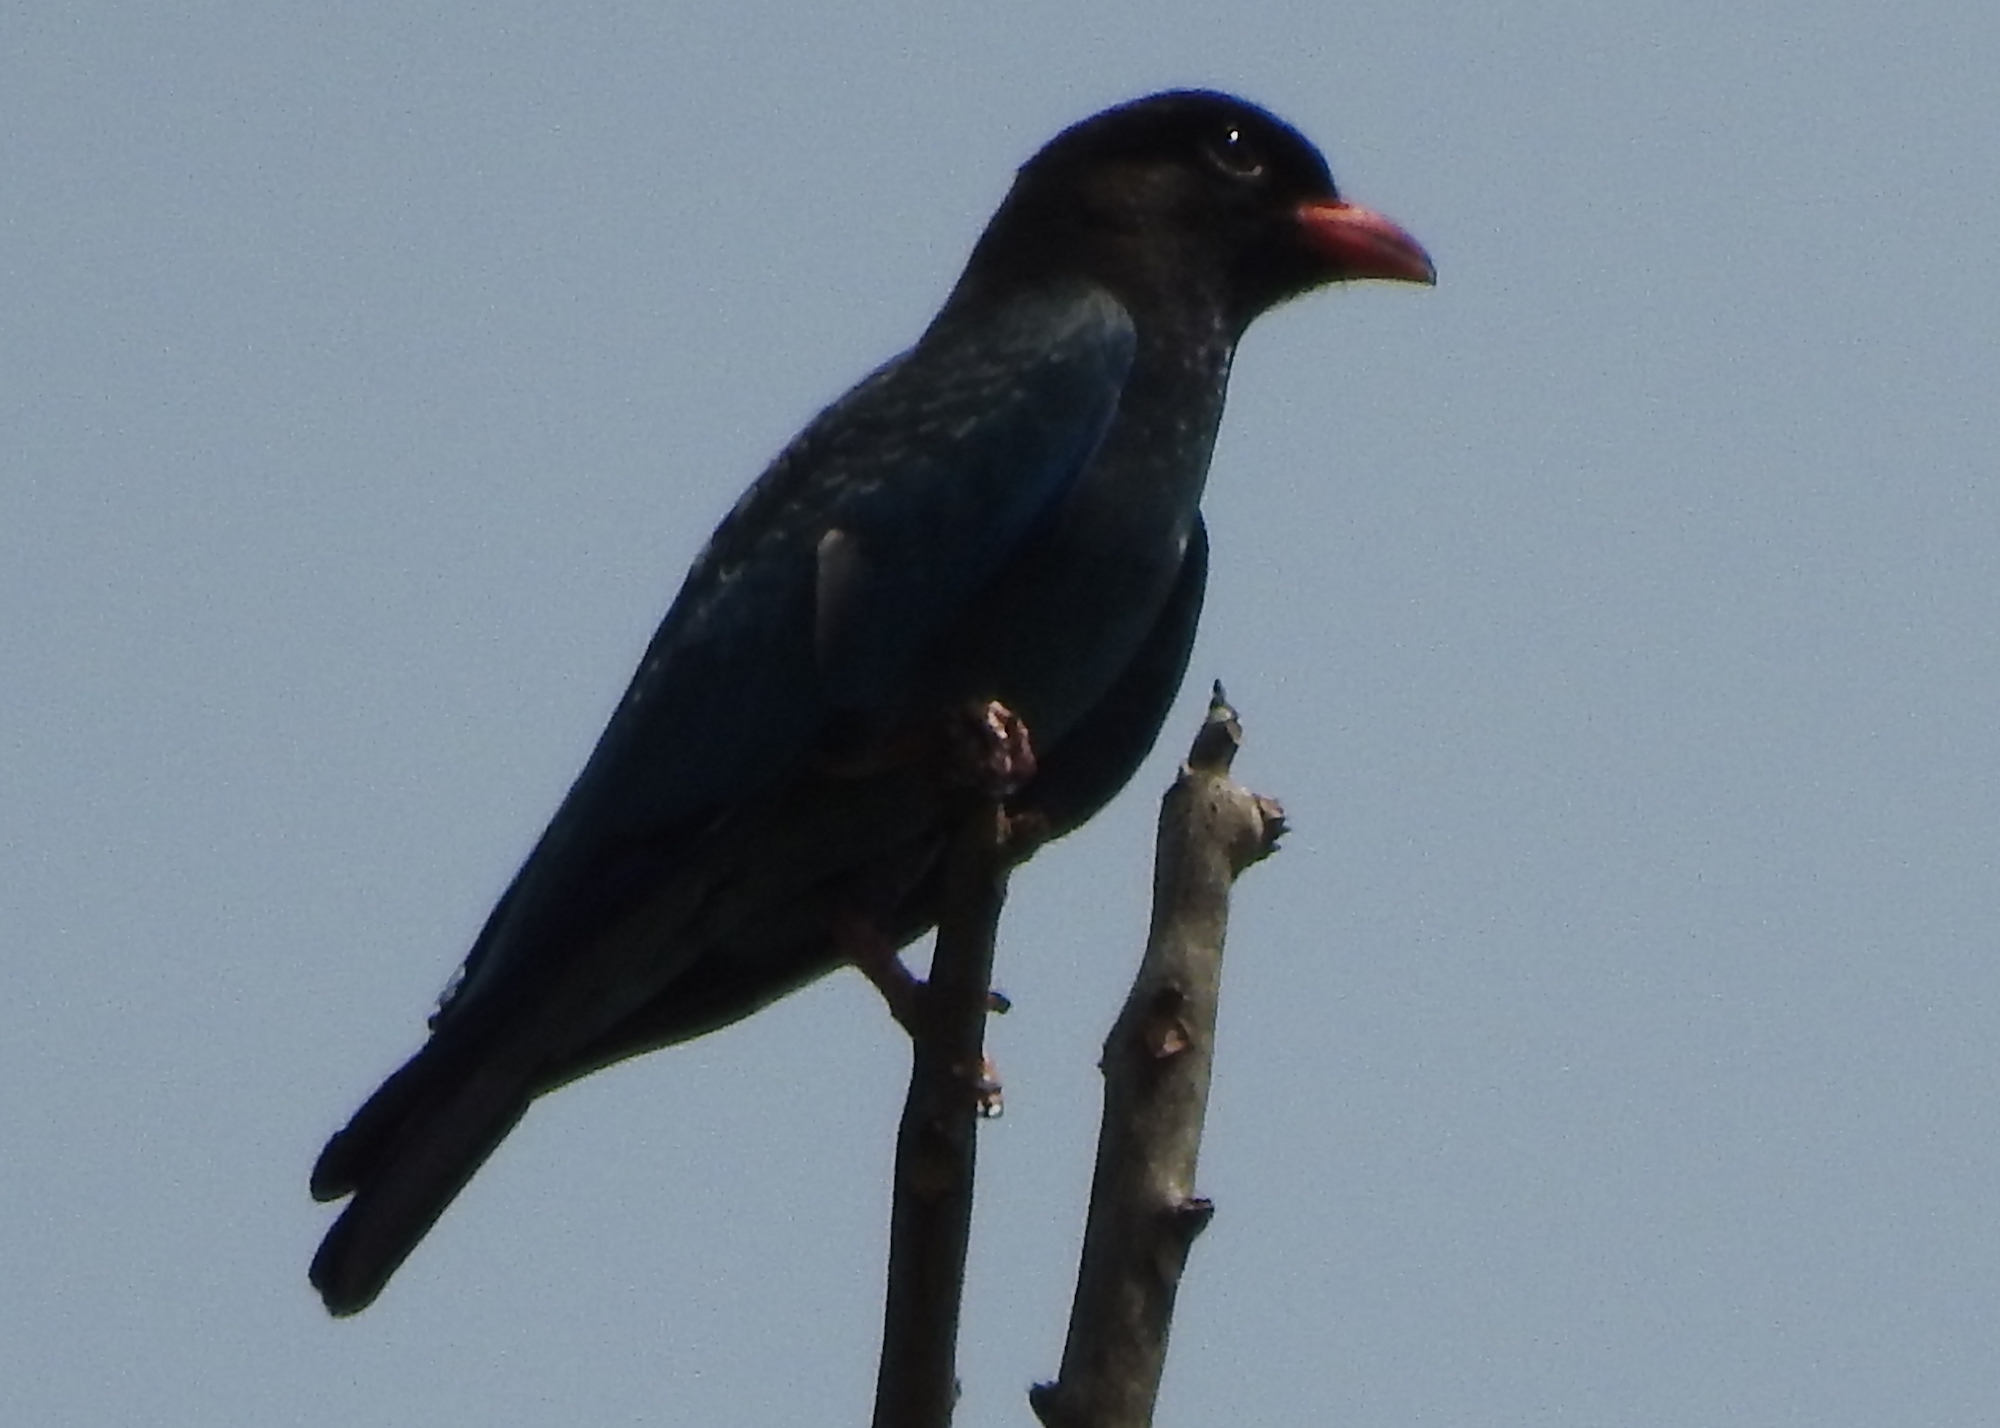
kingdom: Animalia
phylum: Chordata
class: Aves
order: Coraciiformes
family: Coraciidae
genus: Eurystomus
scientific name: Eurystomus orientalis
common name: Oriental dollarbird
